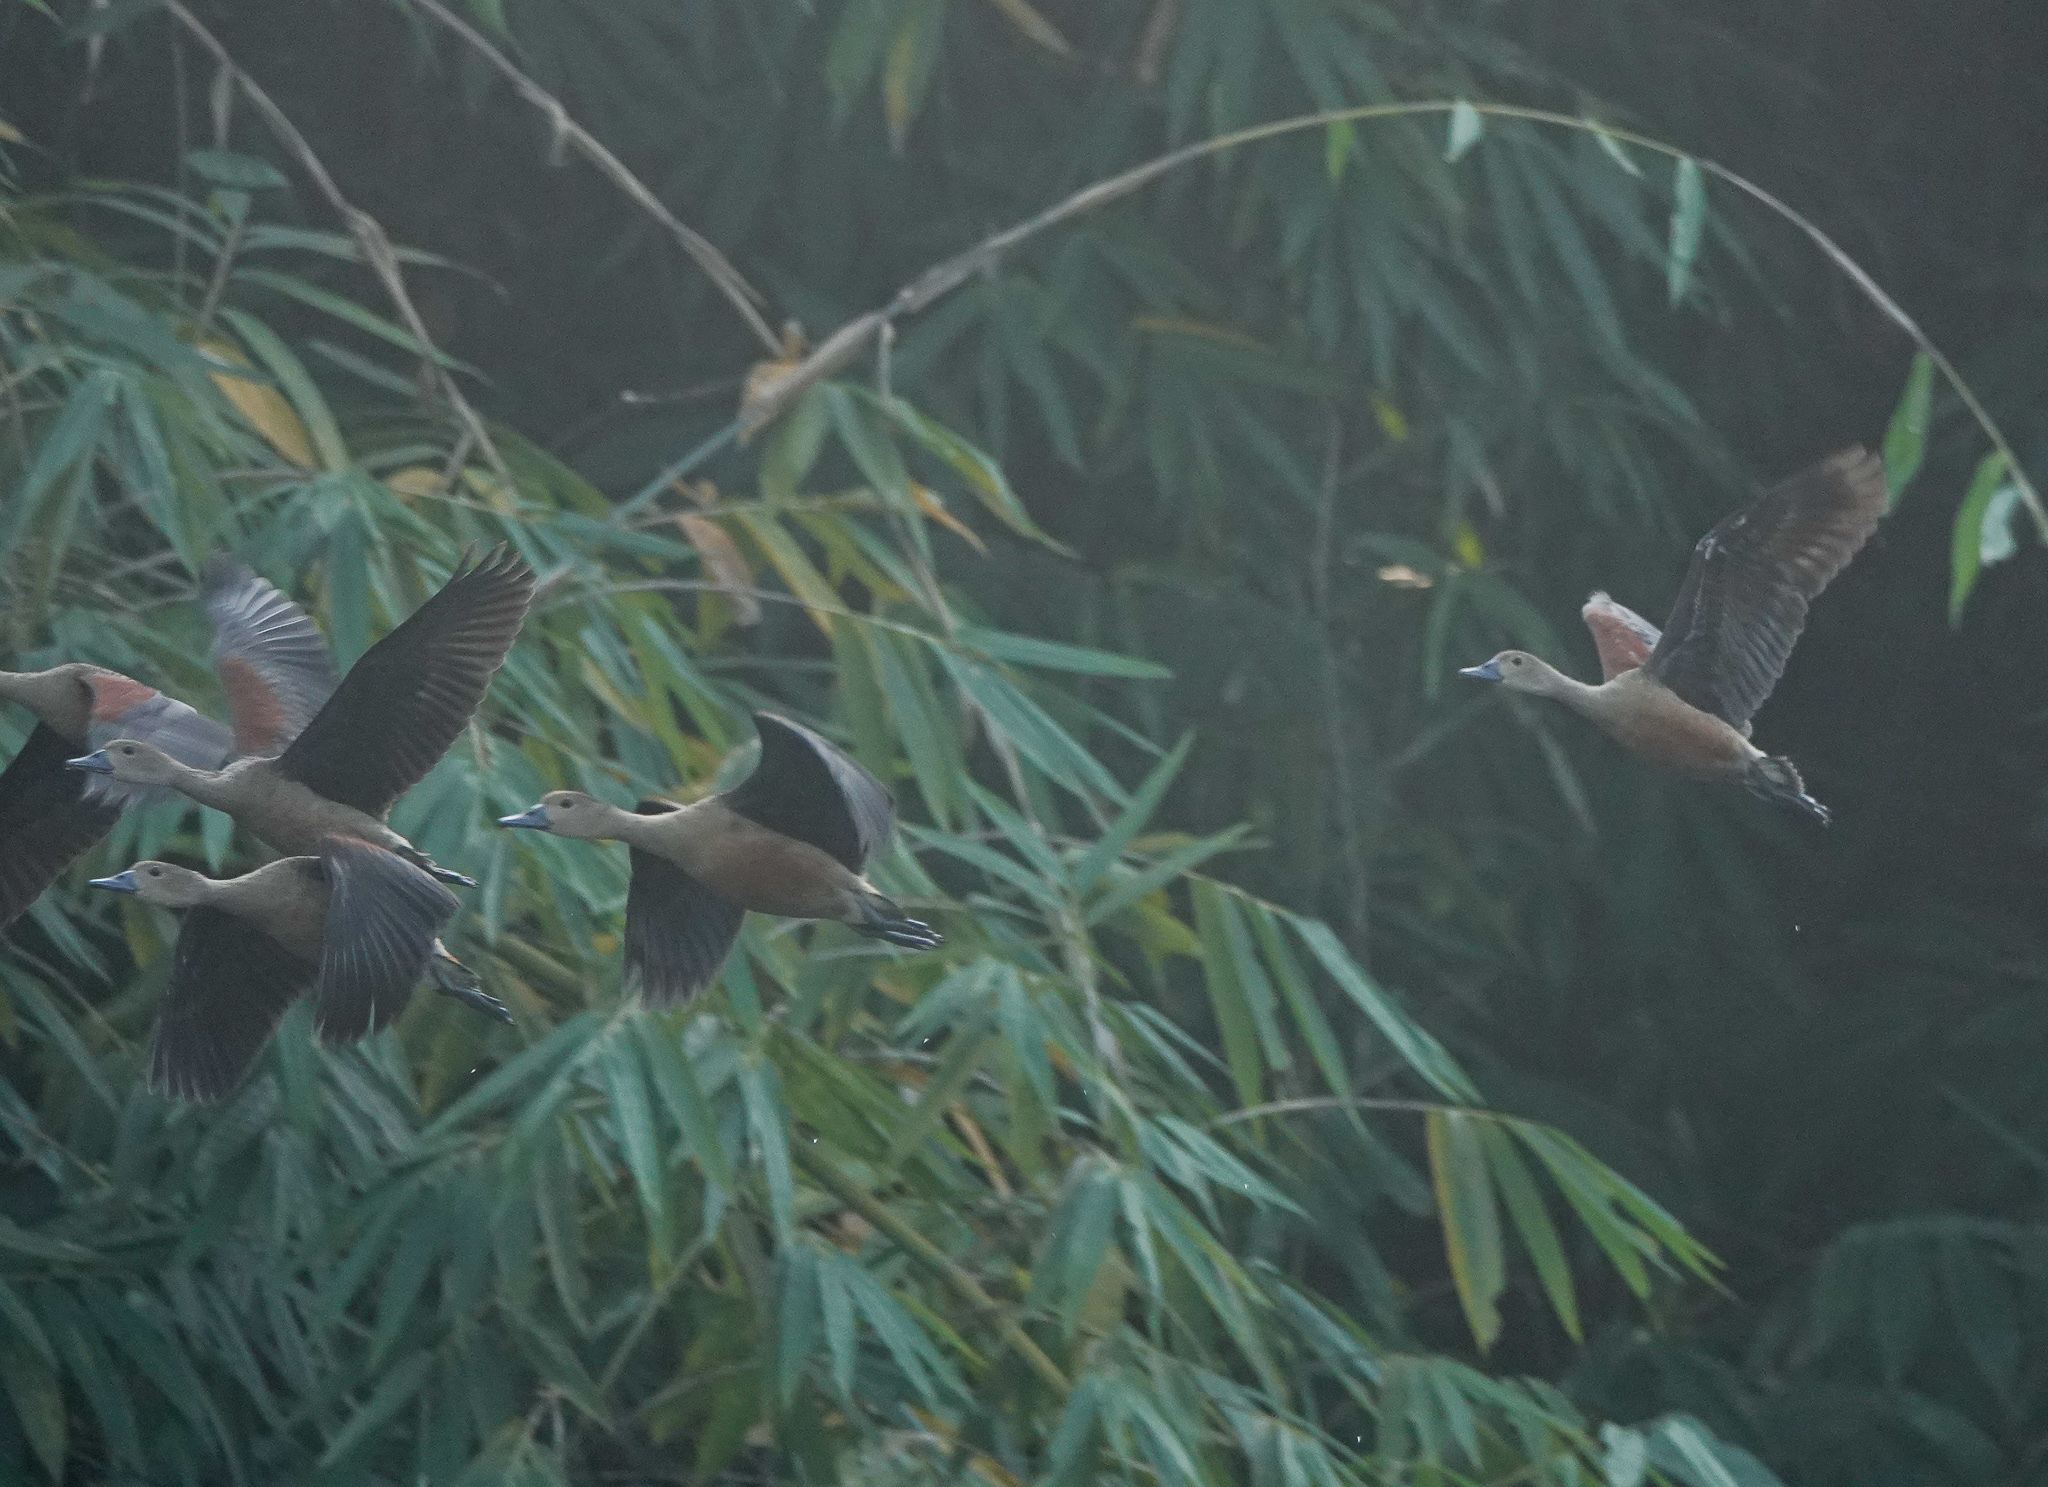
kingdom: Animalia
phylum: Chordata
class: Aves
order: Anseriformes
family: Anatidae
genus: Dendrocygna
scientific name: Dendrocygna javanica
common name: Lesser whistling-duck
